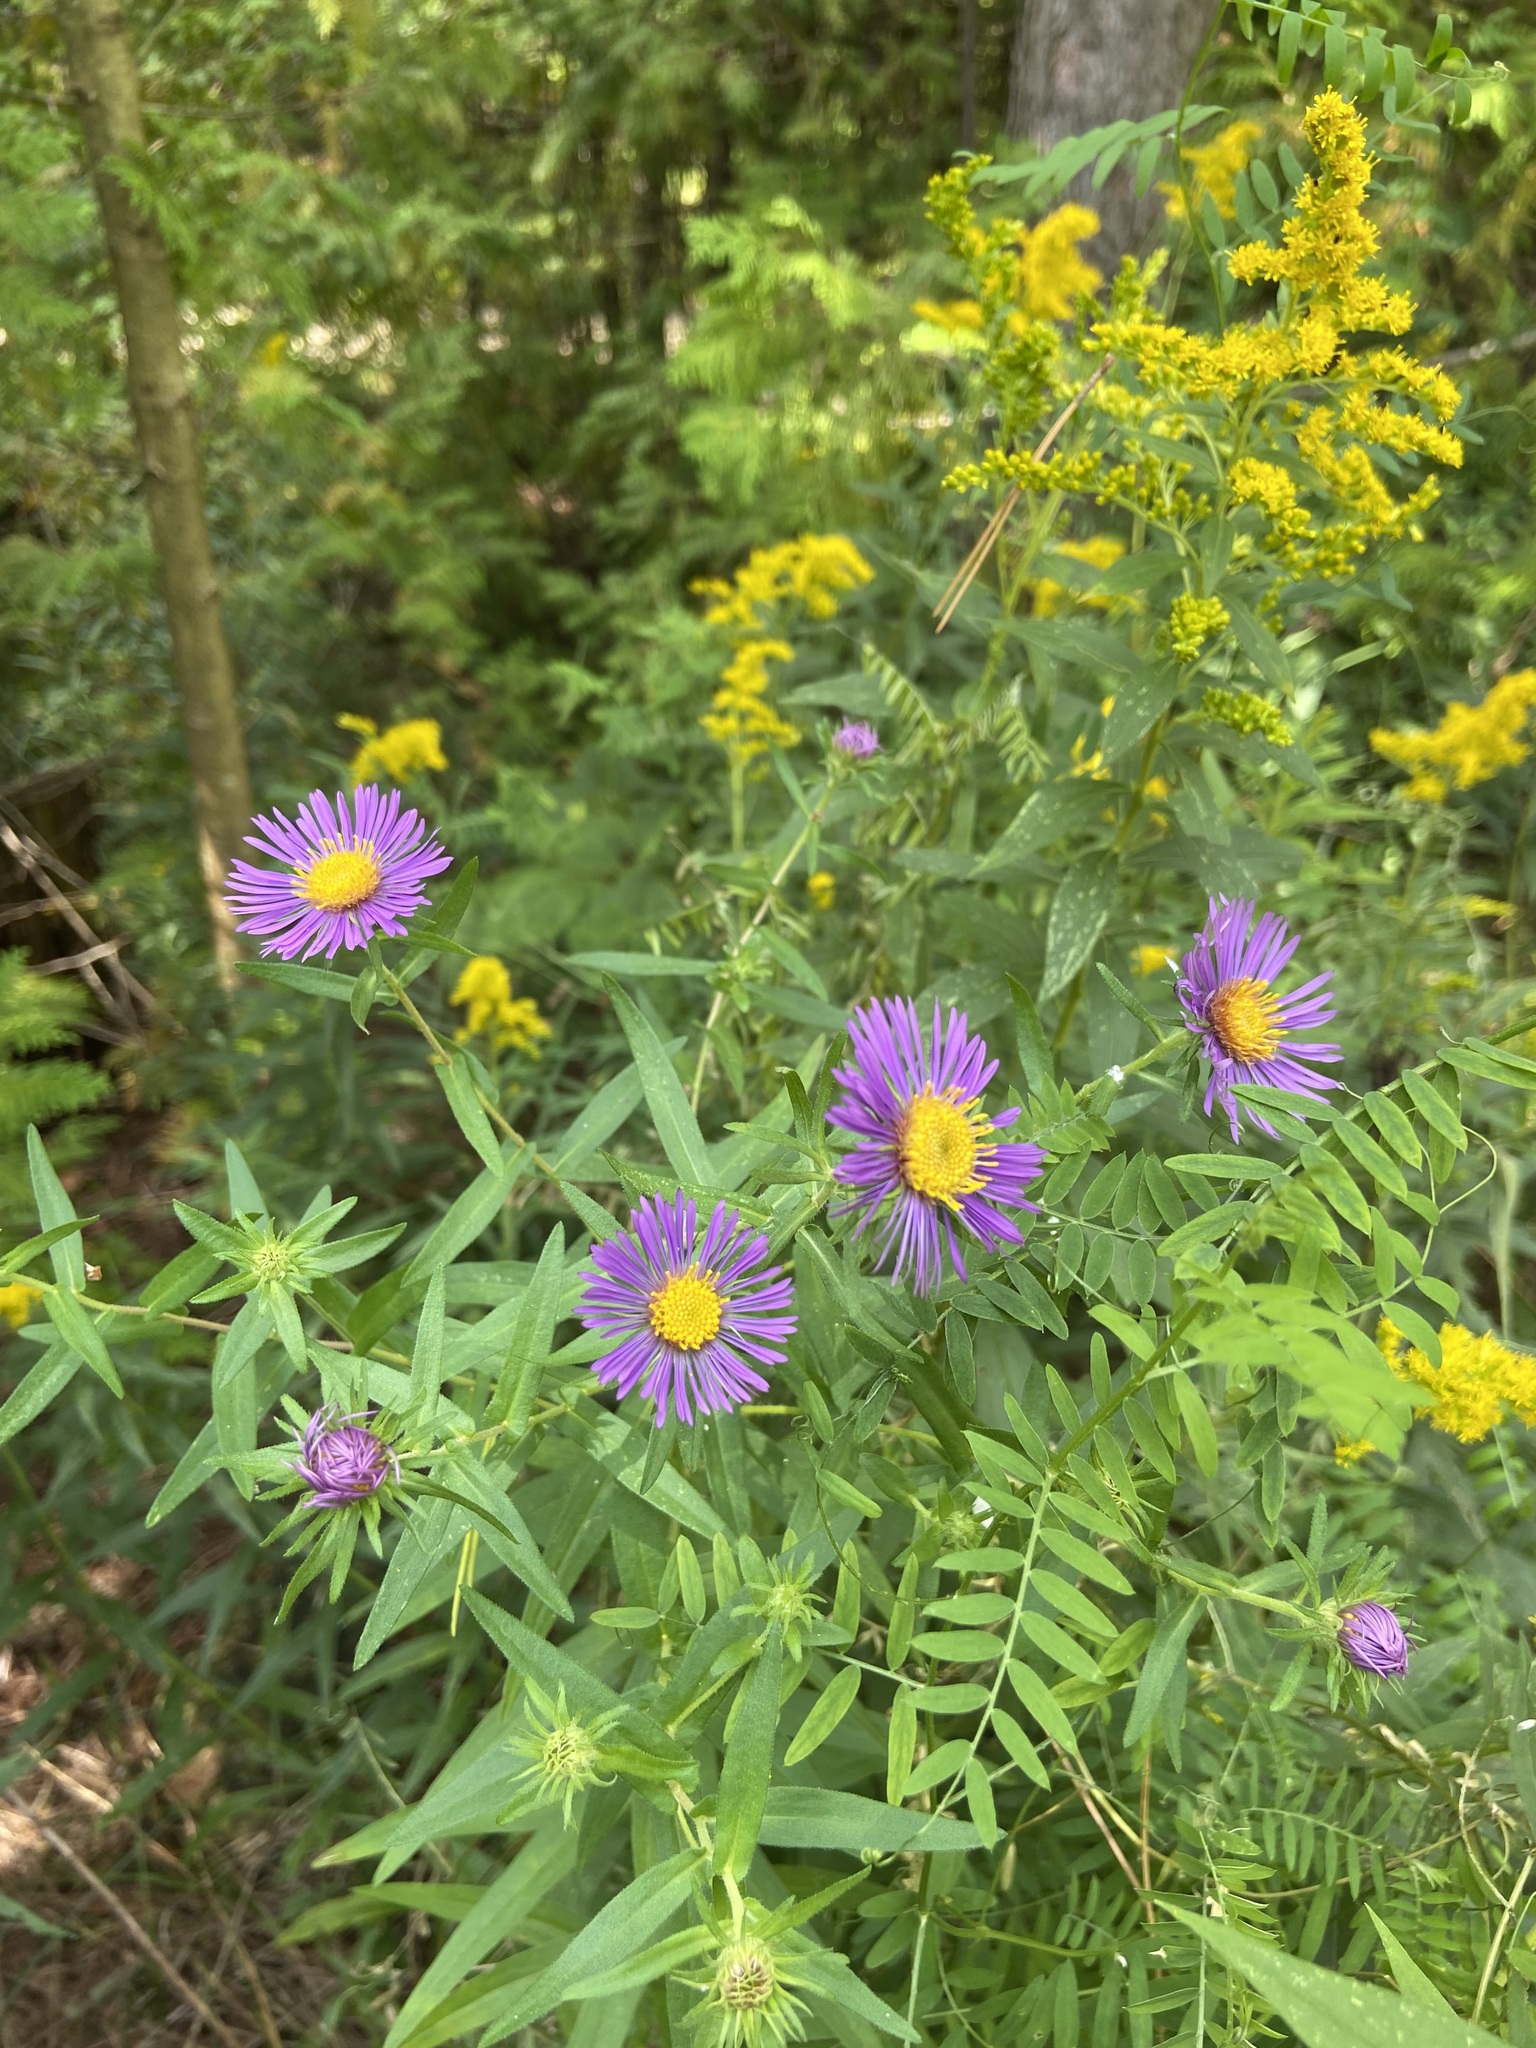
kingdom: Plantae
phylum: Tracheophyta
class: Magnoliopsida
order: Asterales
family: Asteraceae
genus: Symphyotrichum
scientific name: Symphyotrichum novae-angliae
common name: Michaelmas daisy
